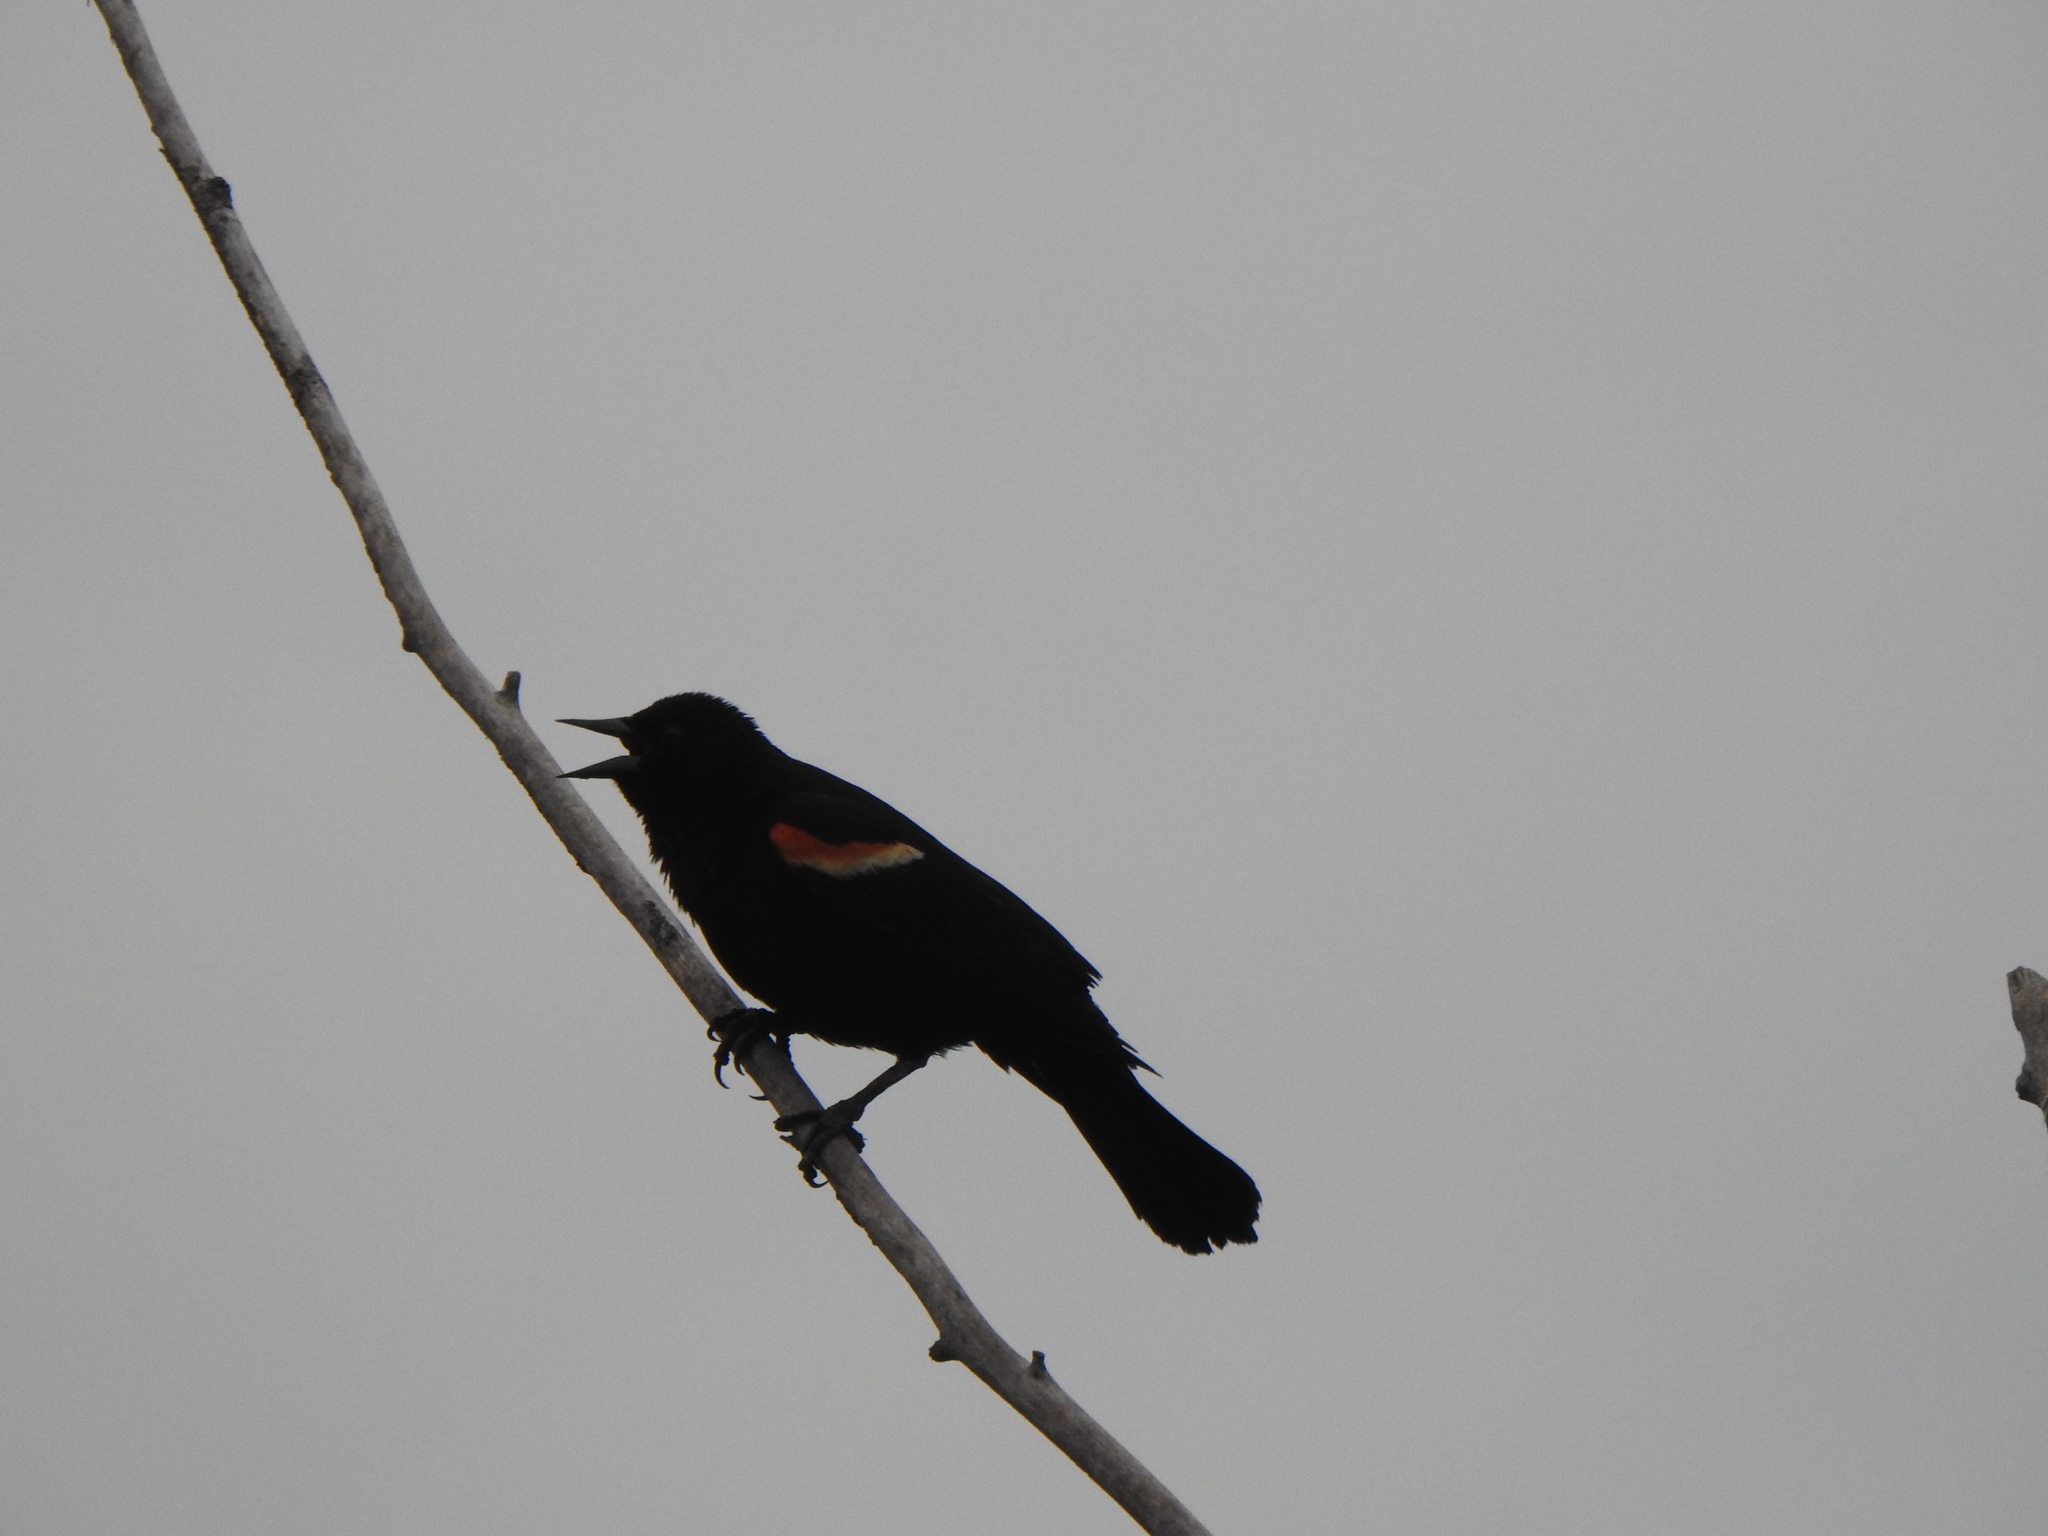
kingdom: Animalia
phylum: Chordata
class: Aves
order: Passeriformes
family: Icteridae
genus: Agelaius
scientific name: Agelaius phoeniceus
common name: Red-winged blackbird
